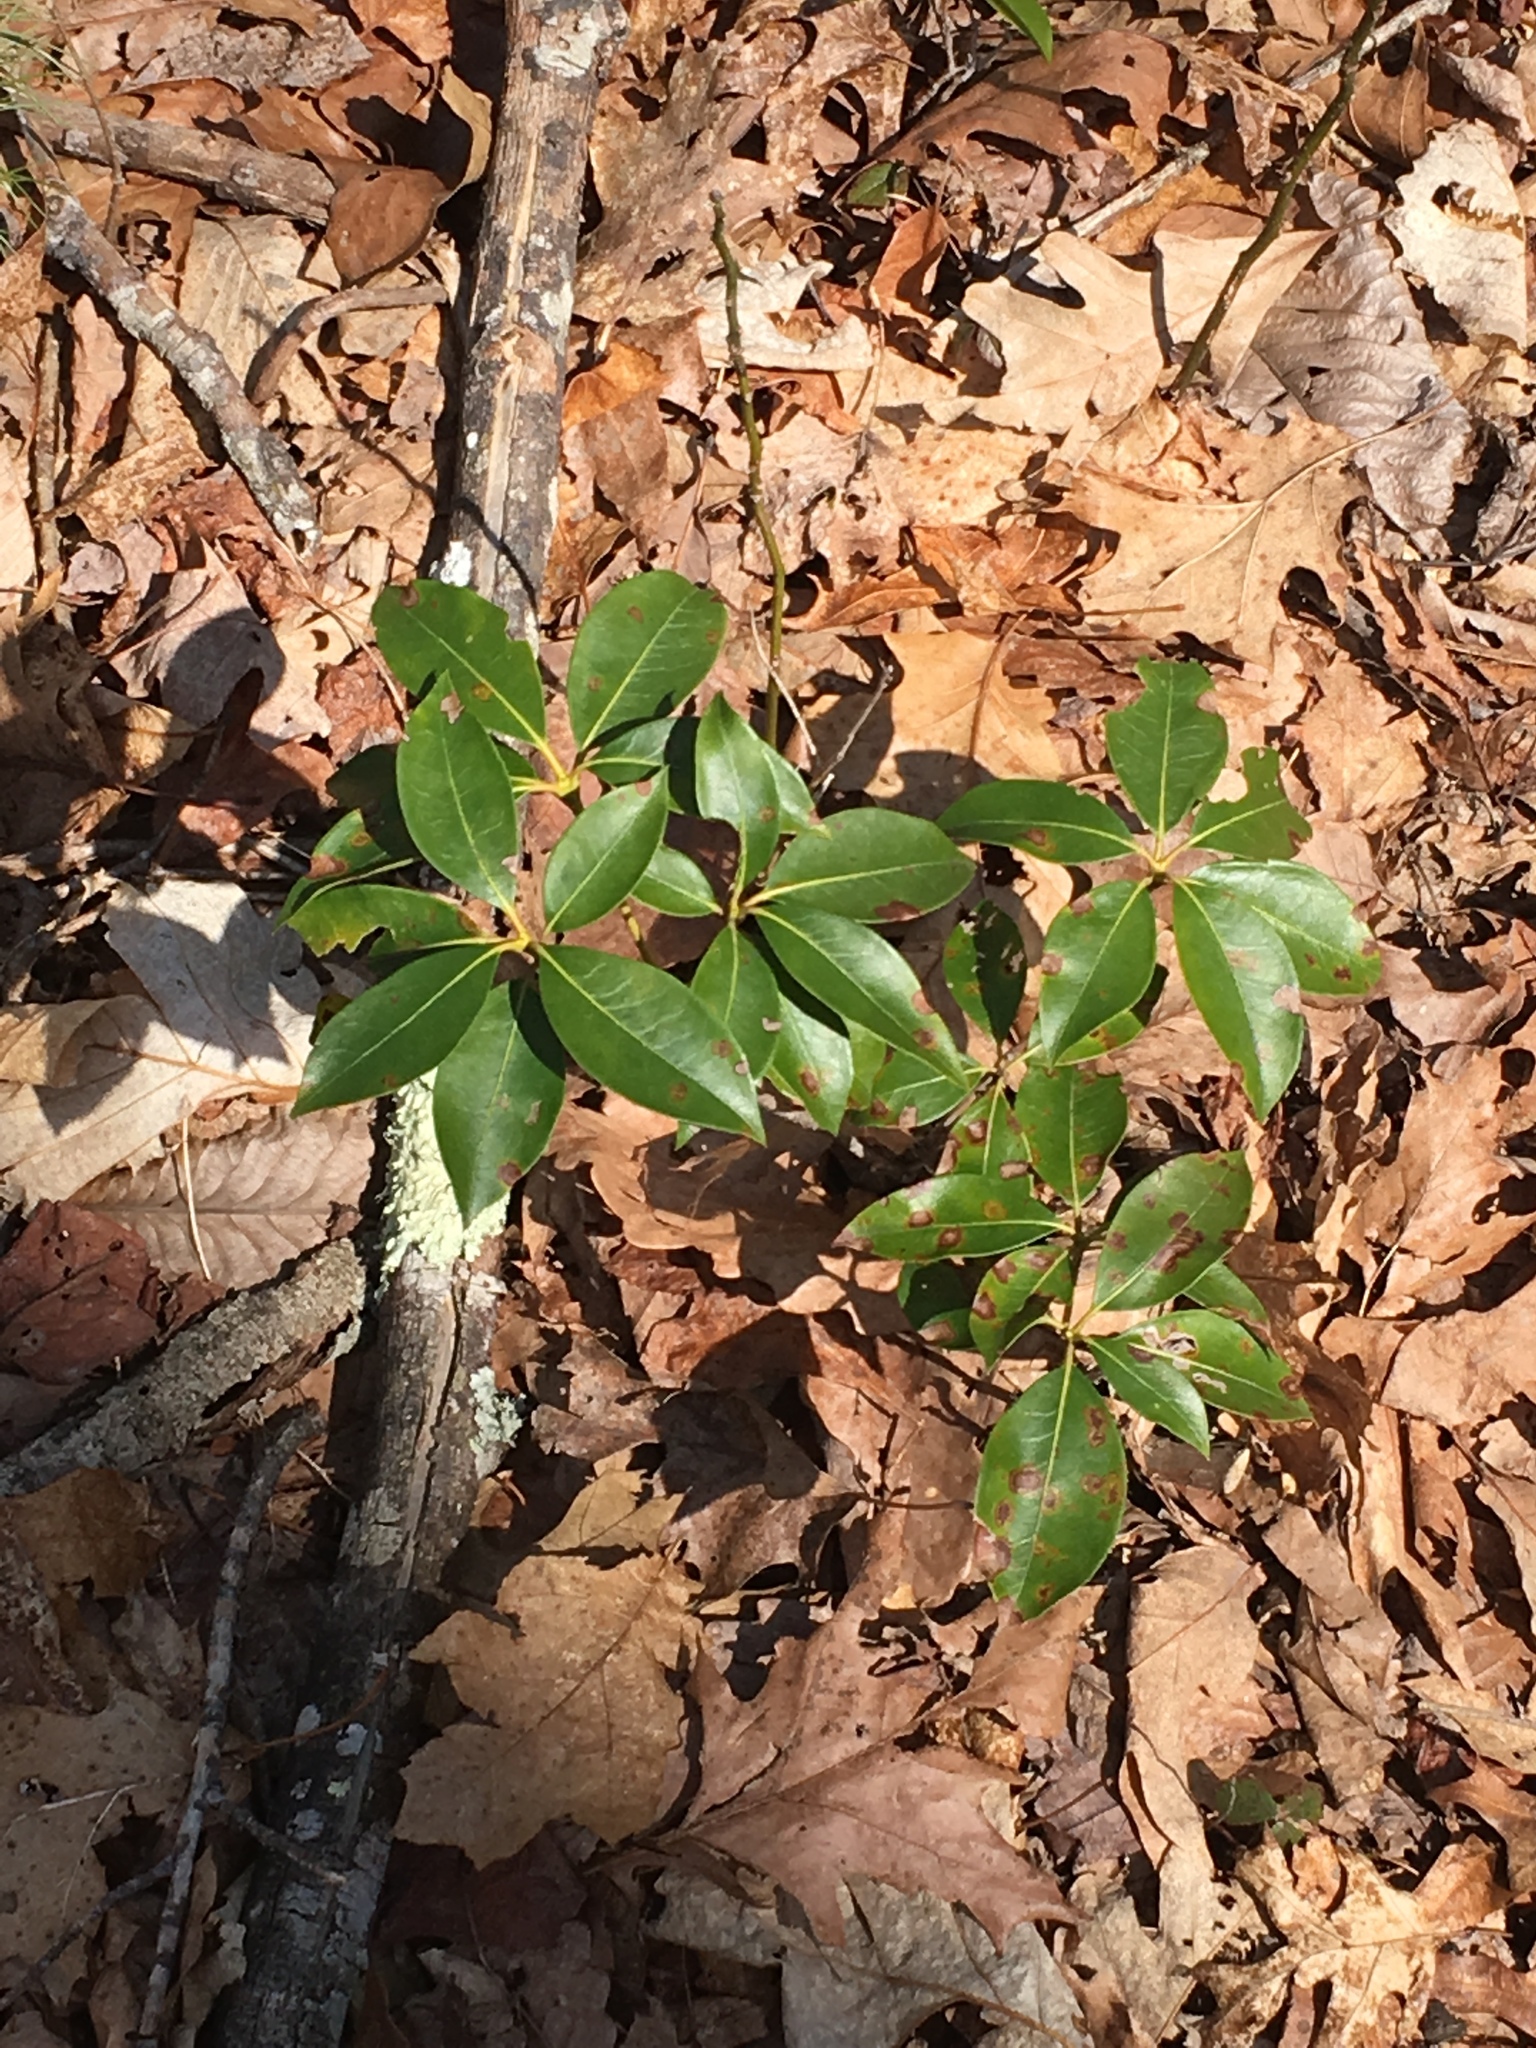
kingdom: Plantae
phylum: Tracheophyta
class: Magnoliopsida
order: Ericales
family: Ericaceae
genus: Kalmia
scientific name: Kalmia latifolia
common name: Mountain-laurel
